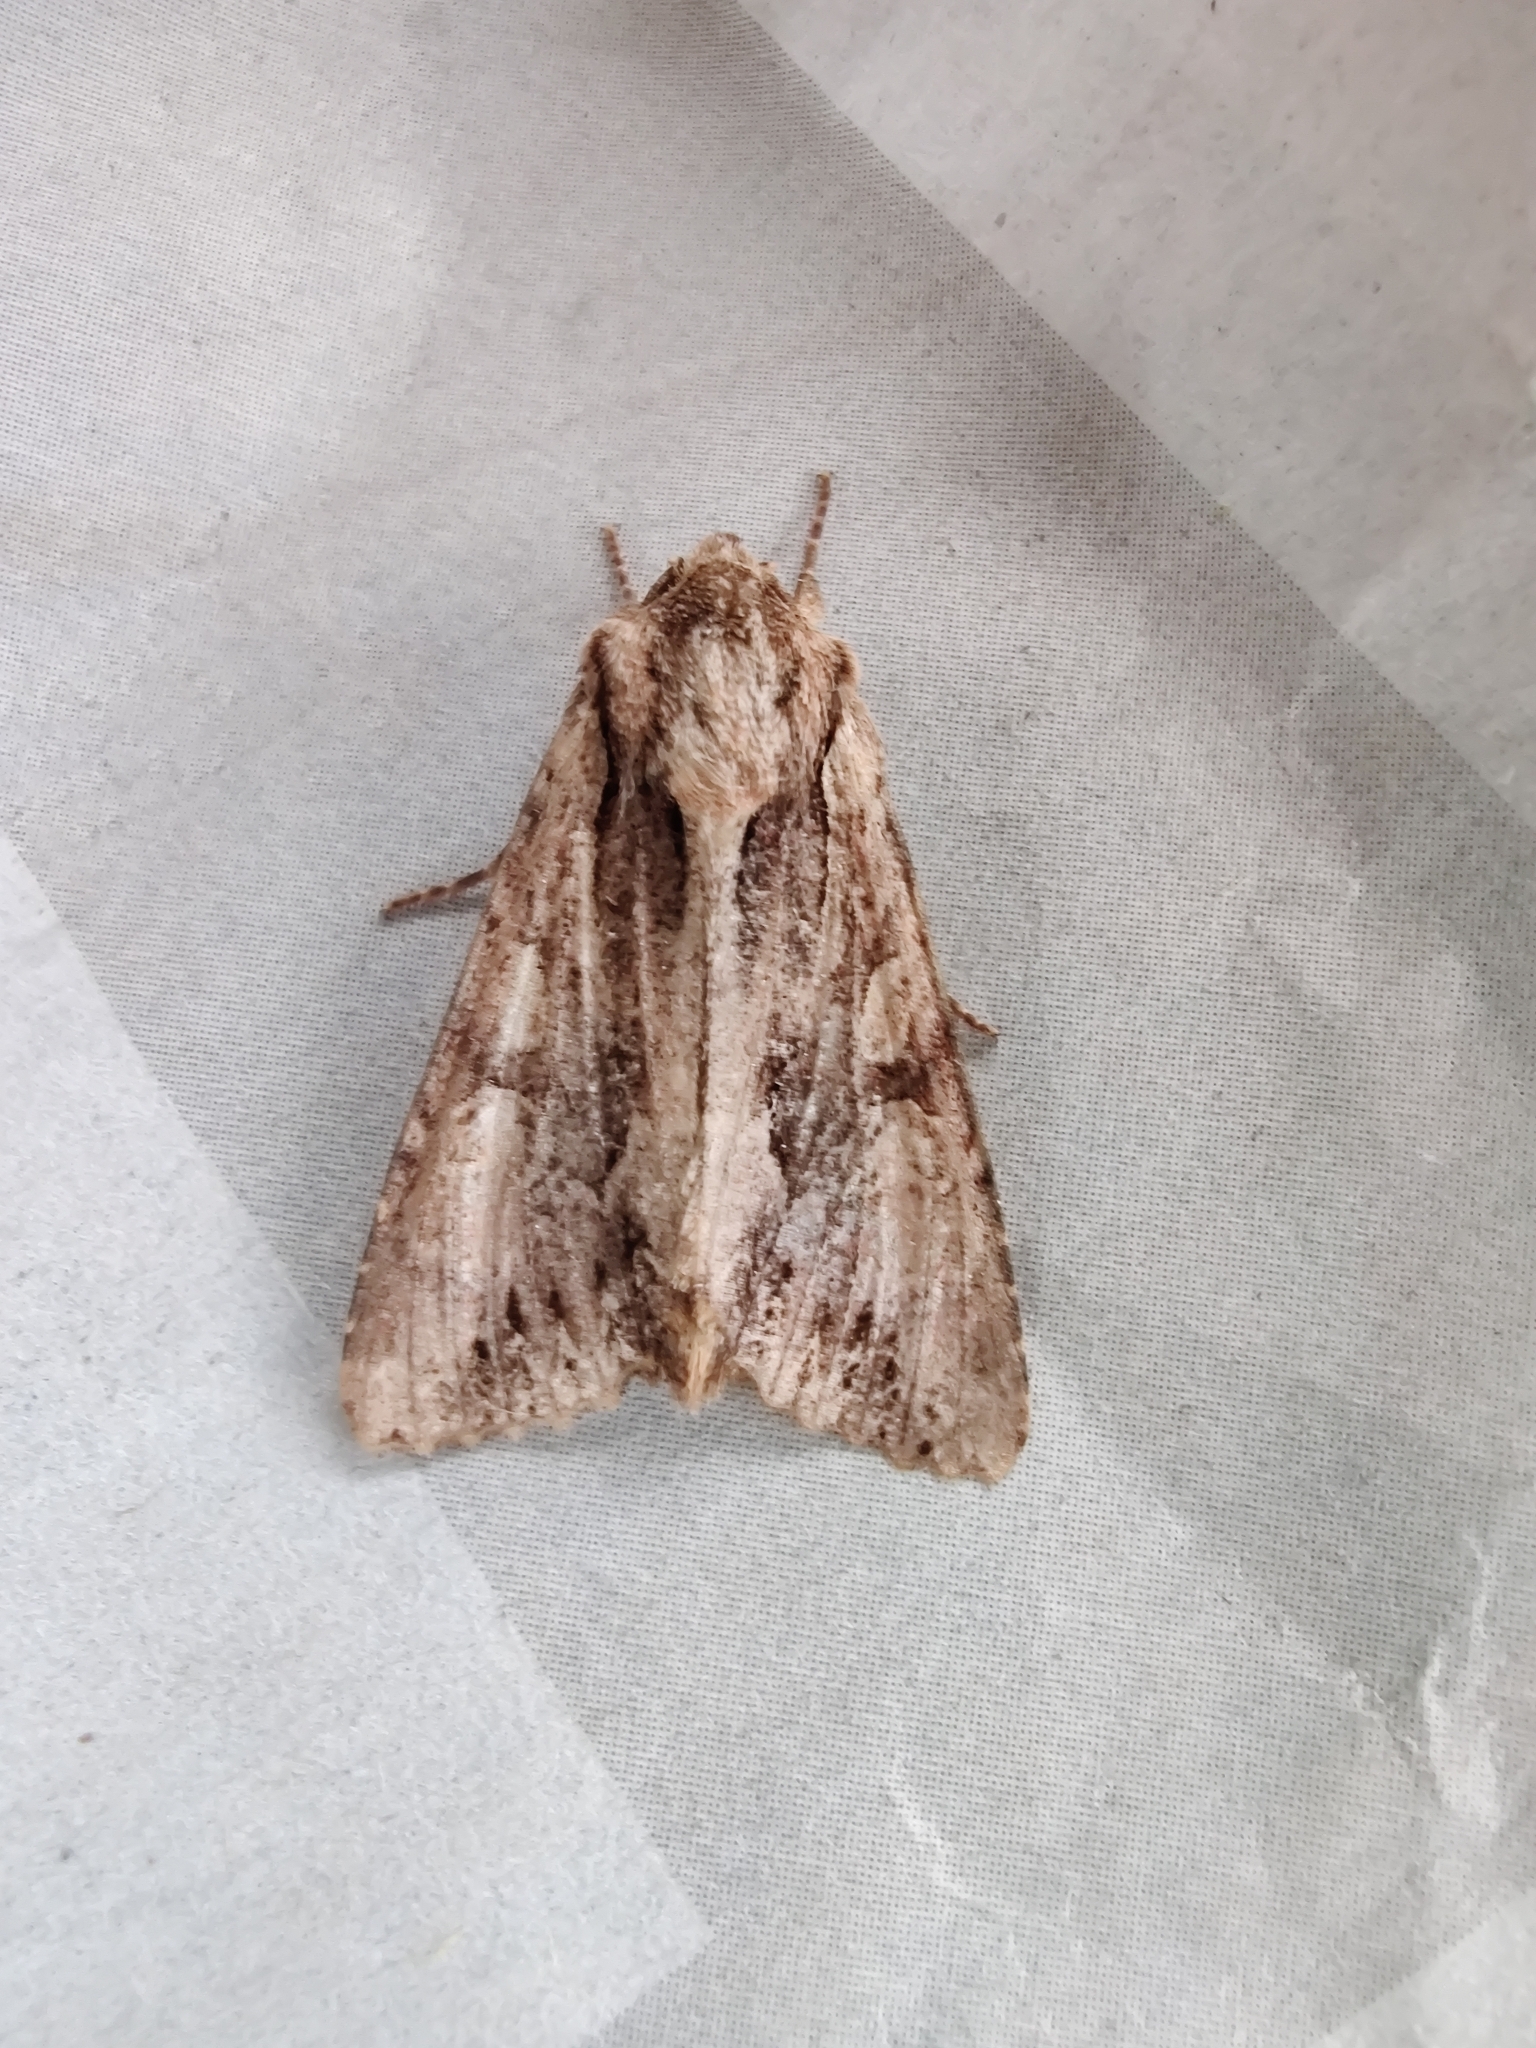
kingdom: Animalia
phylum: Arthropoda
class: Insecta
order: Lepidoptera
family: Noctuidae
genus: Apamea
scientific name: Apamea monoglypha
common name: Dark arches
